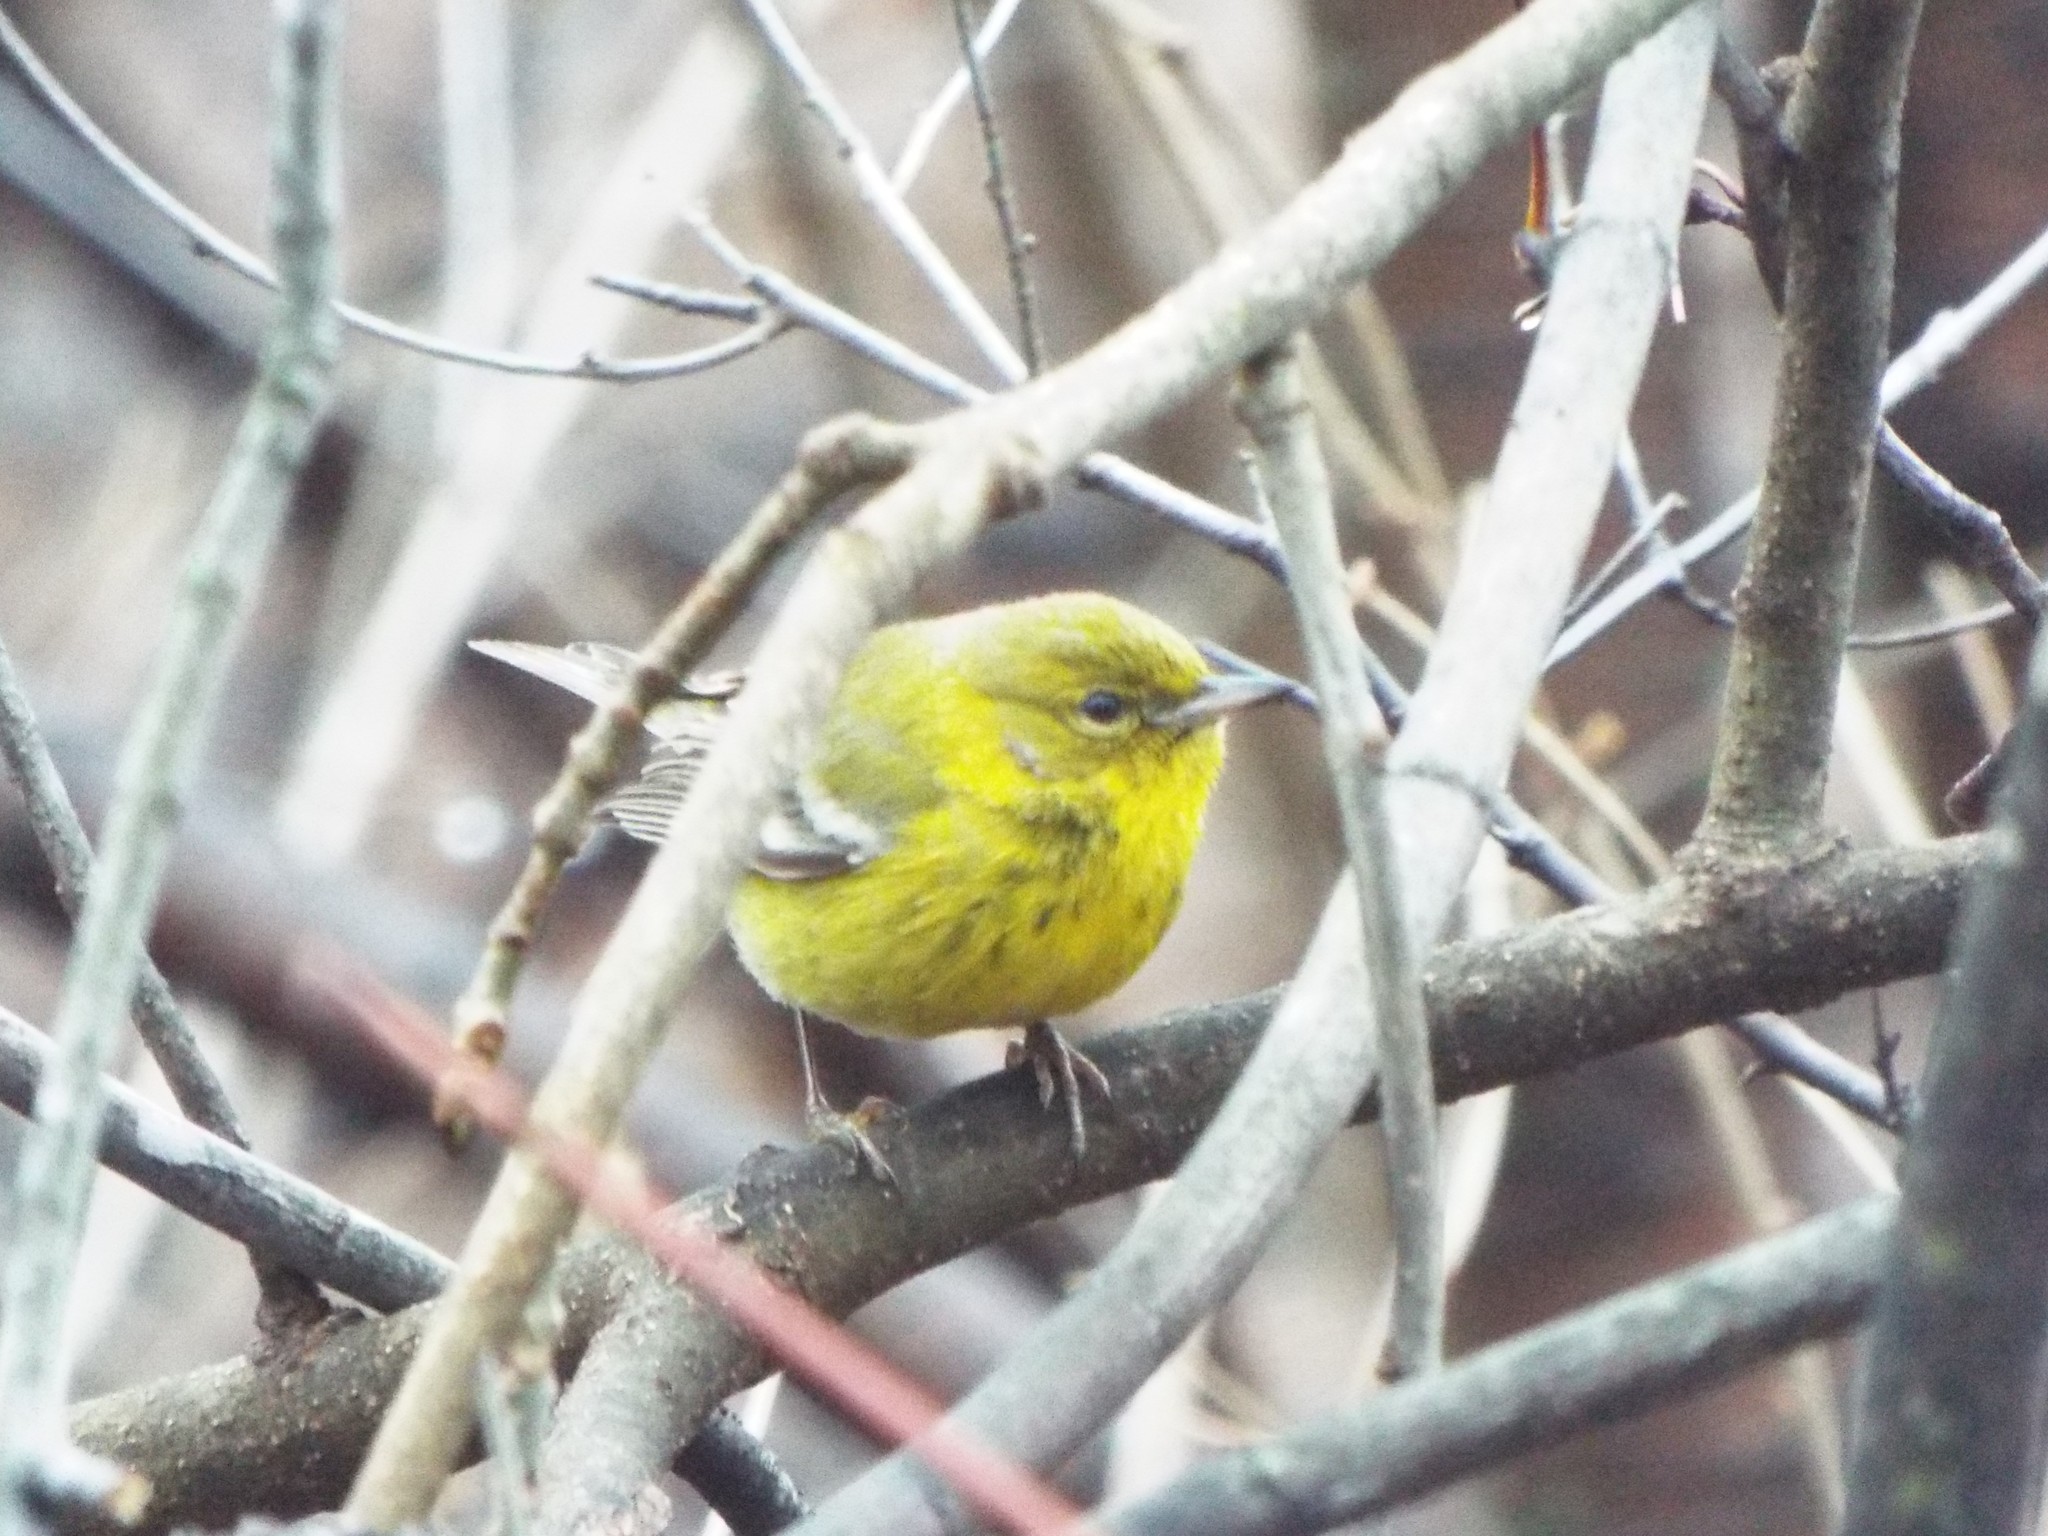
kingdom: Animalia
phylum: Chordata
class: Aves
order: Passeriformes
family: Parulidae
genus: Setophaga
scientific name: Setophaga pinus
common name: Pine warbler
